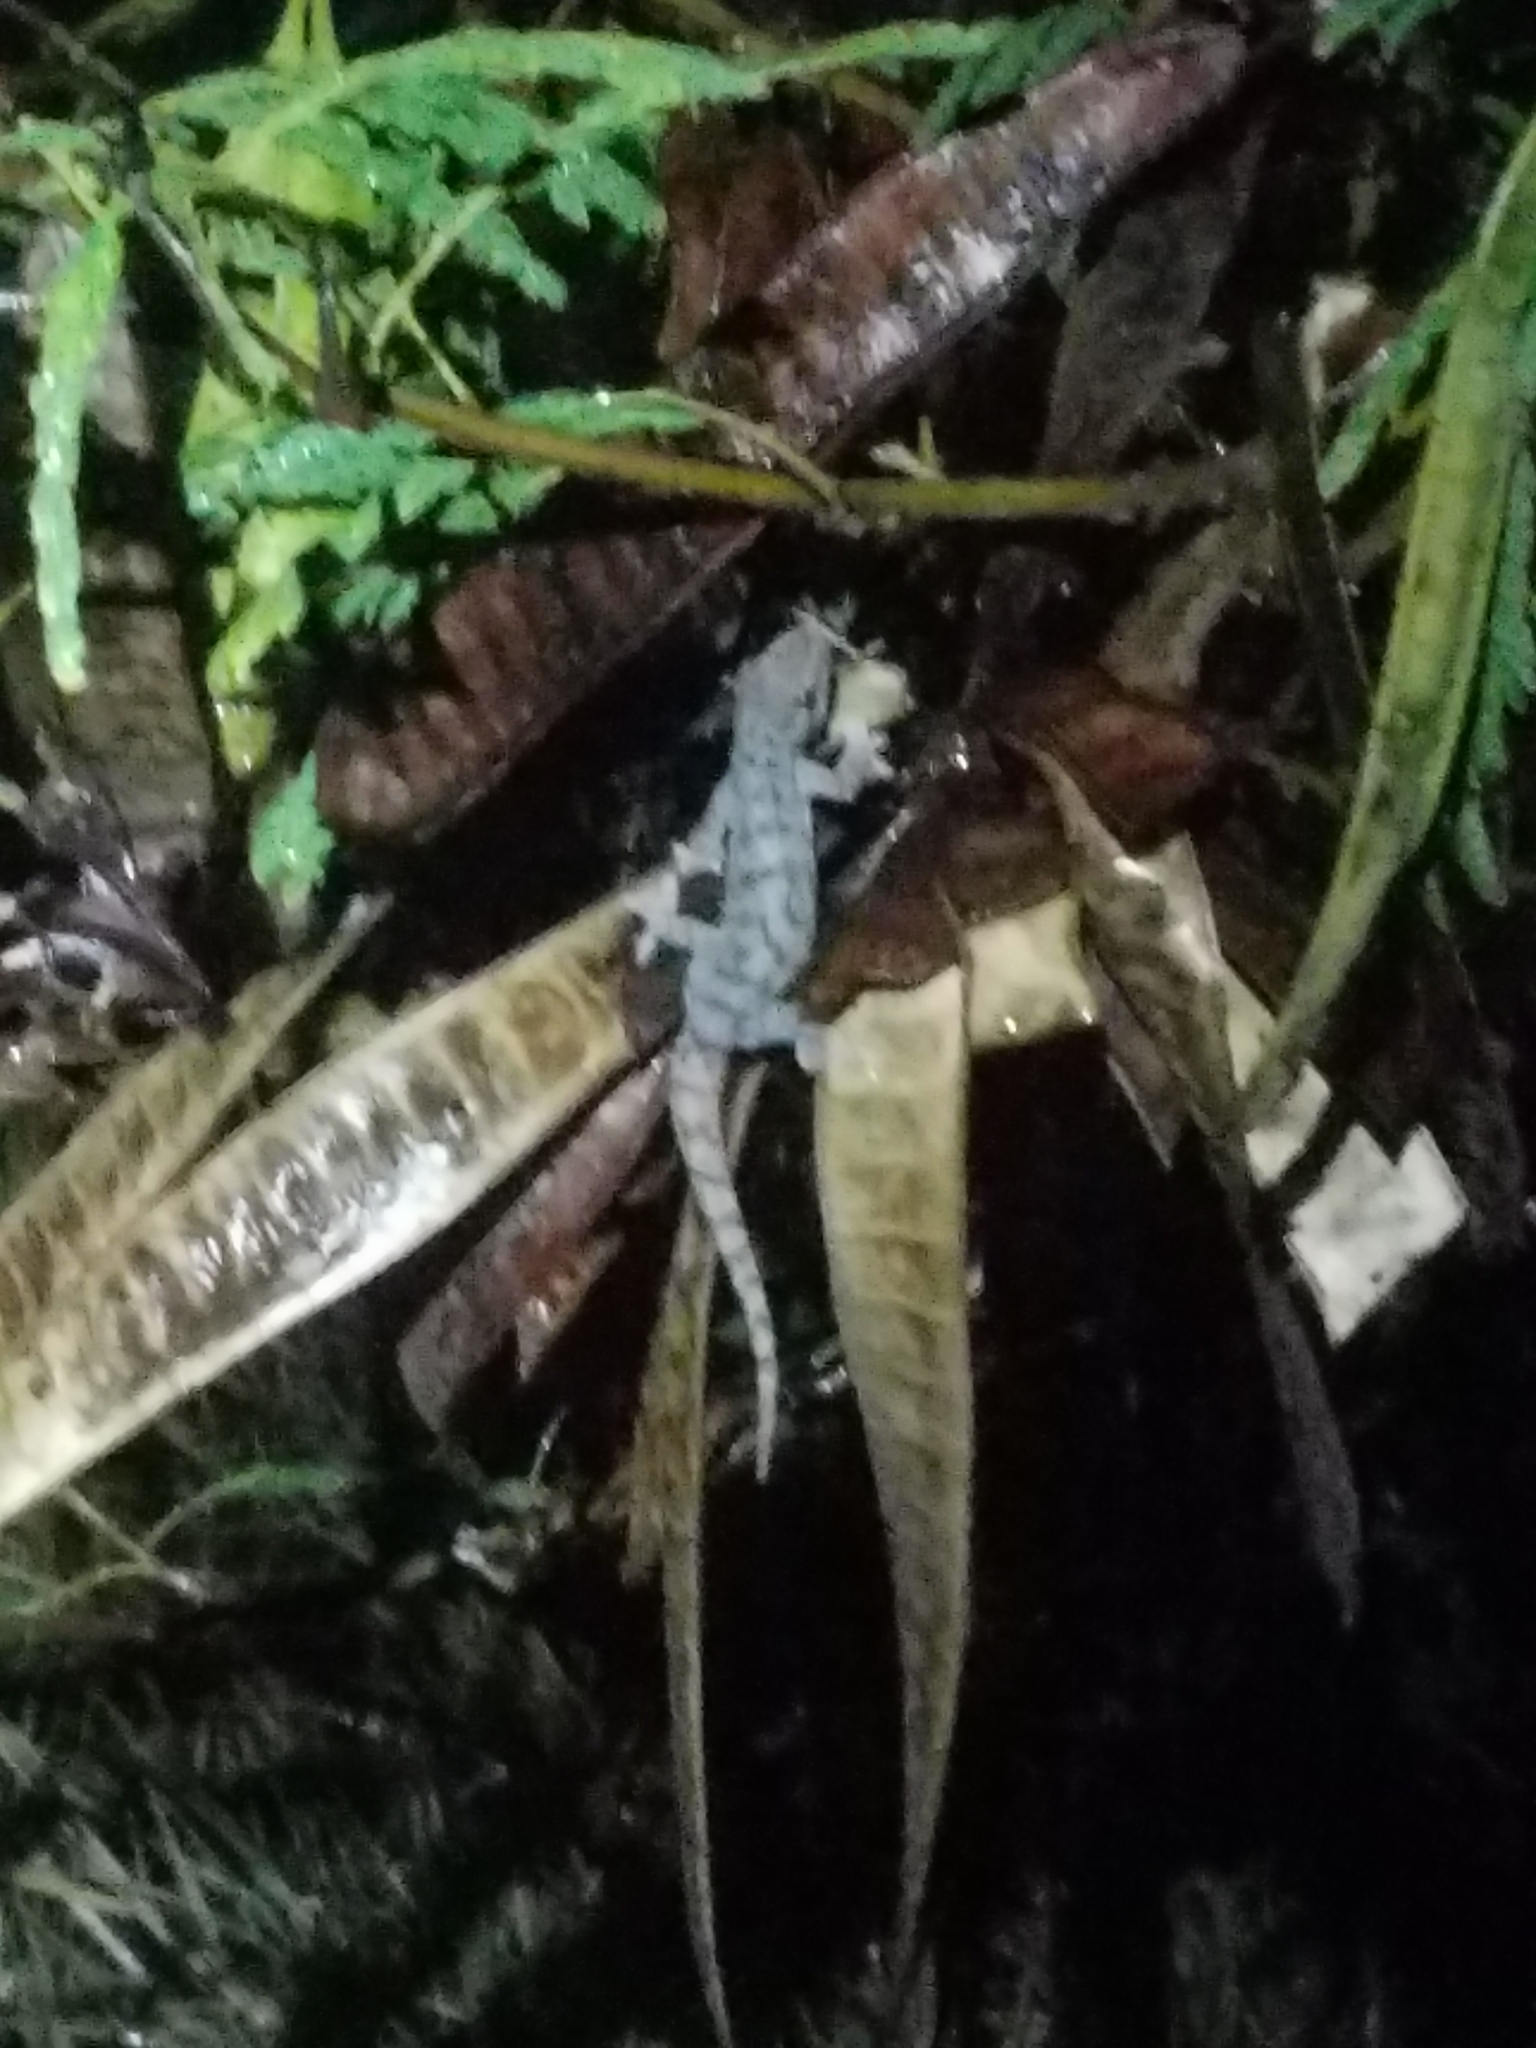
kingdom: Animalia
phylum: Chordata
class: Squamata
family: Gekkonidae
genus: Lepidodactylus
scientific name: Lepidodactylus lugubris
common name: Mourning gecko
